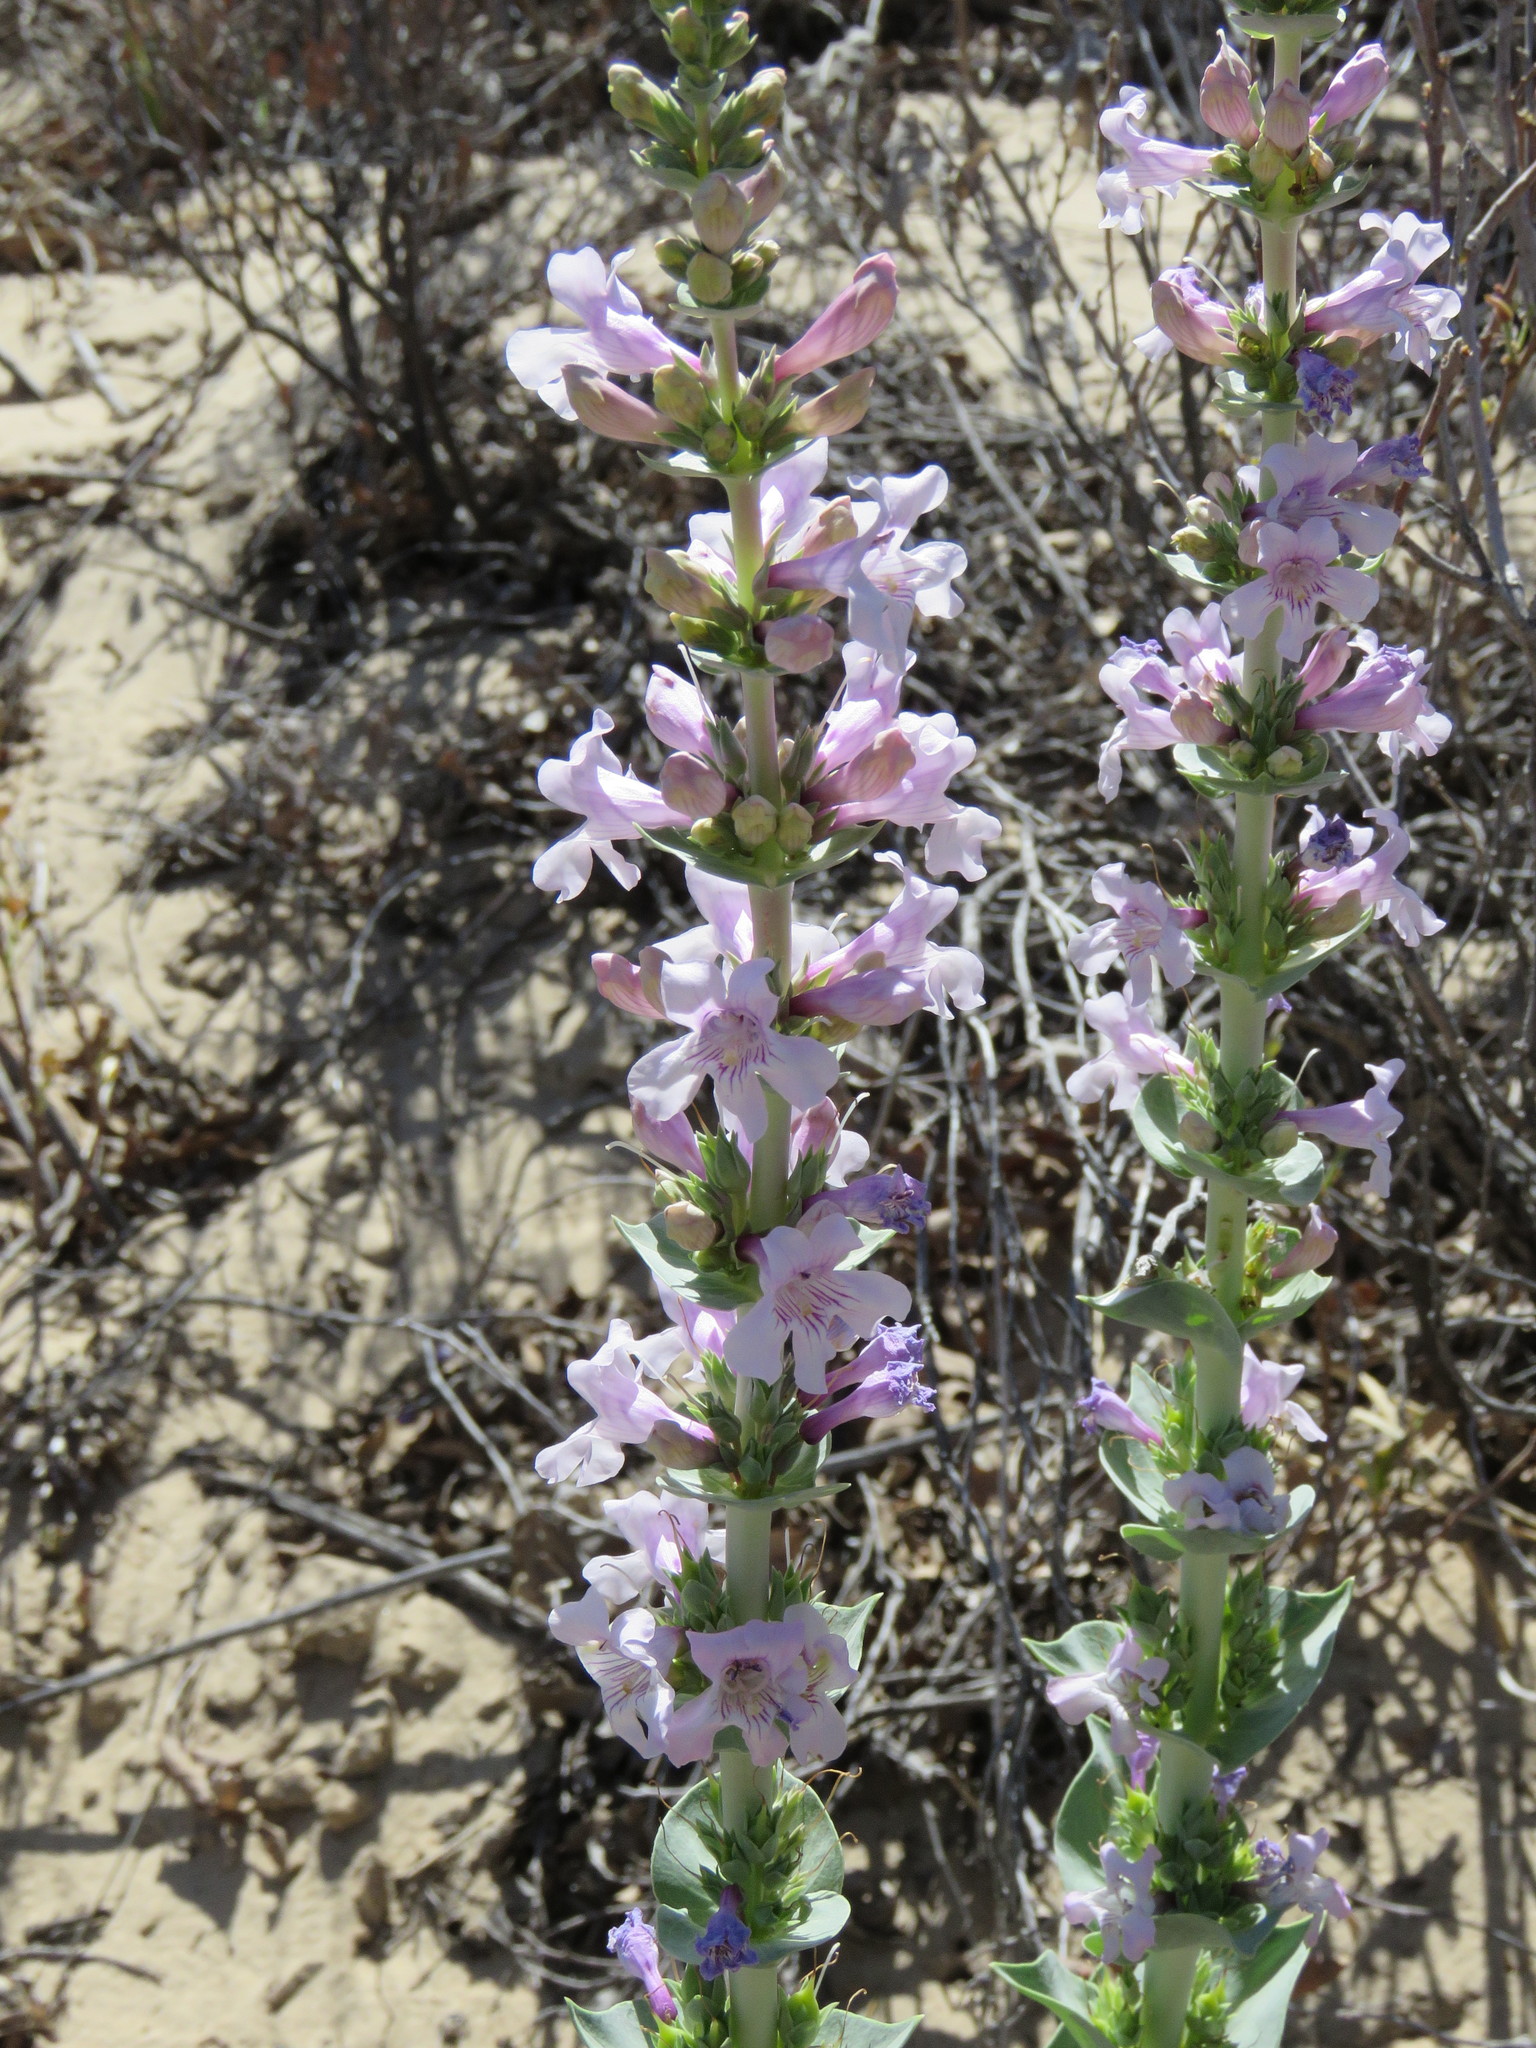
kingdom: Plantae
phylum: Tracheophyta
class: Magnoliopsida
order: Lamiales
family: Plantaginaceae
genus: Penstemon
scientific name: Penstemon buckleyi
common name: Buckley's penstemon
